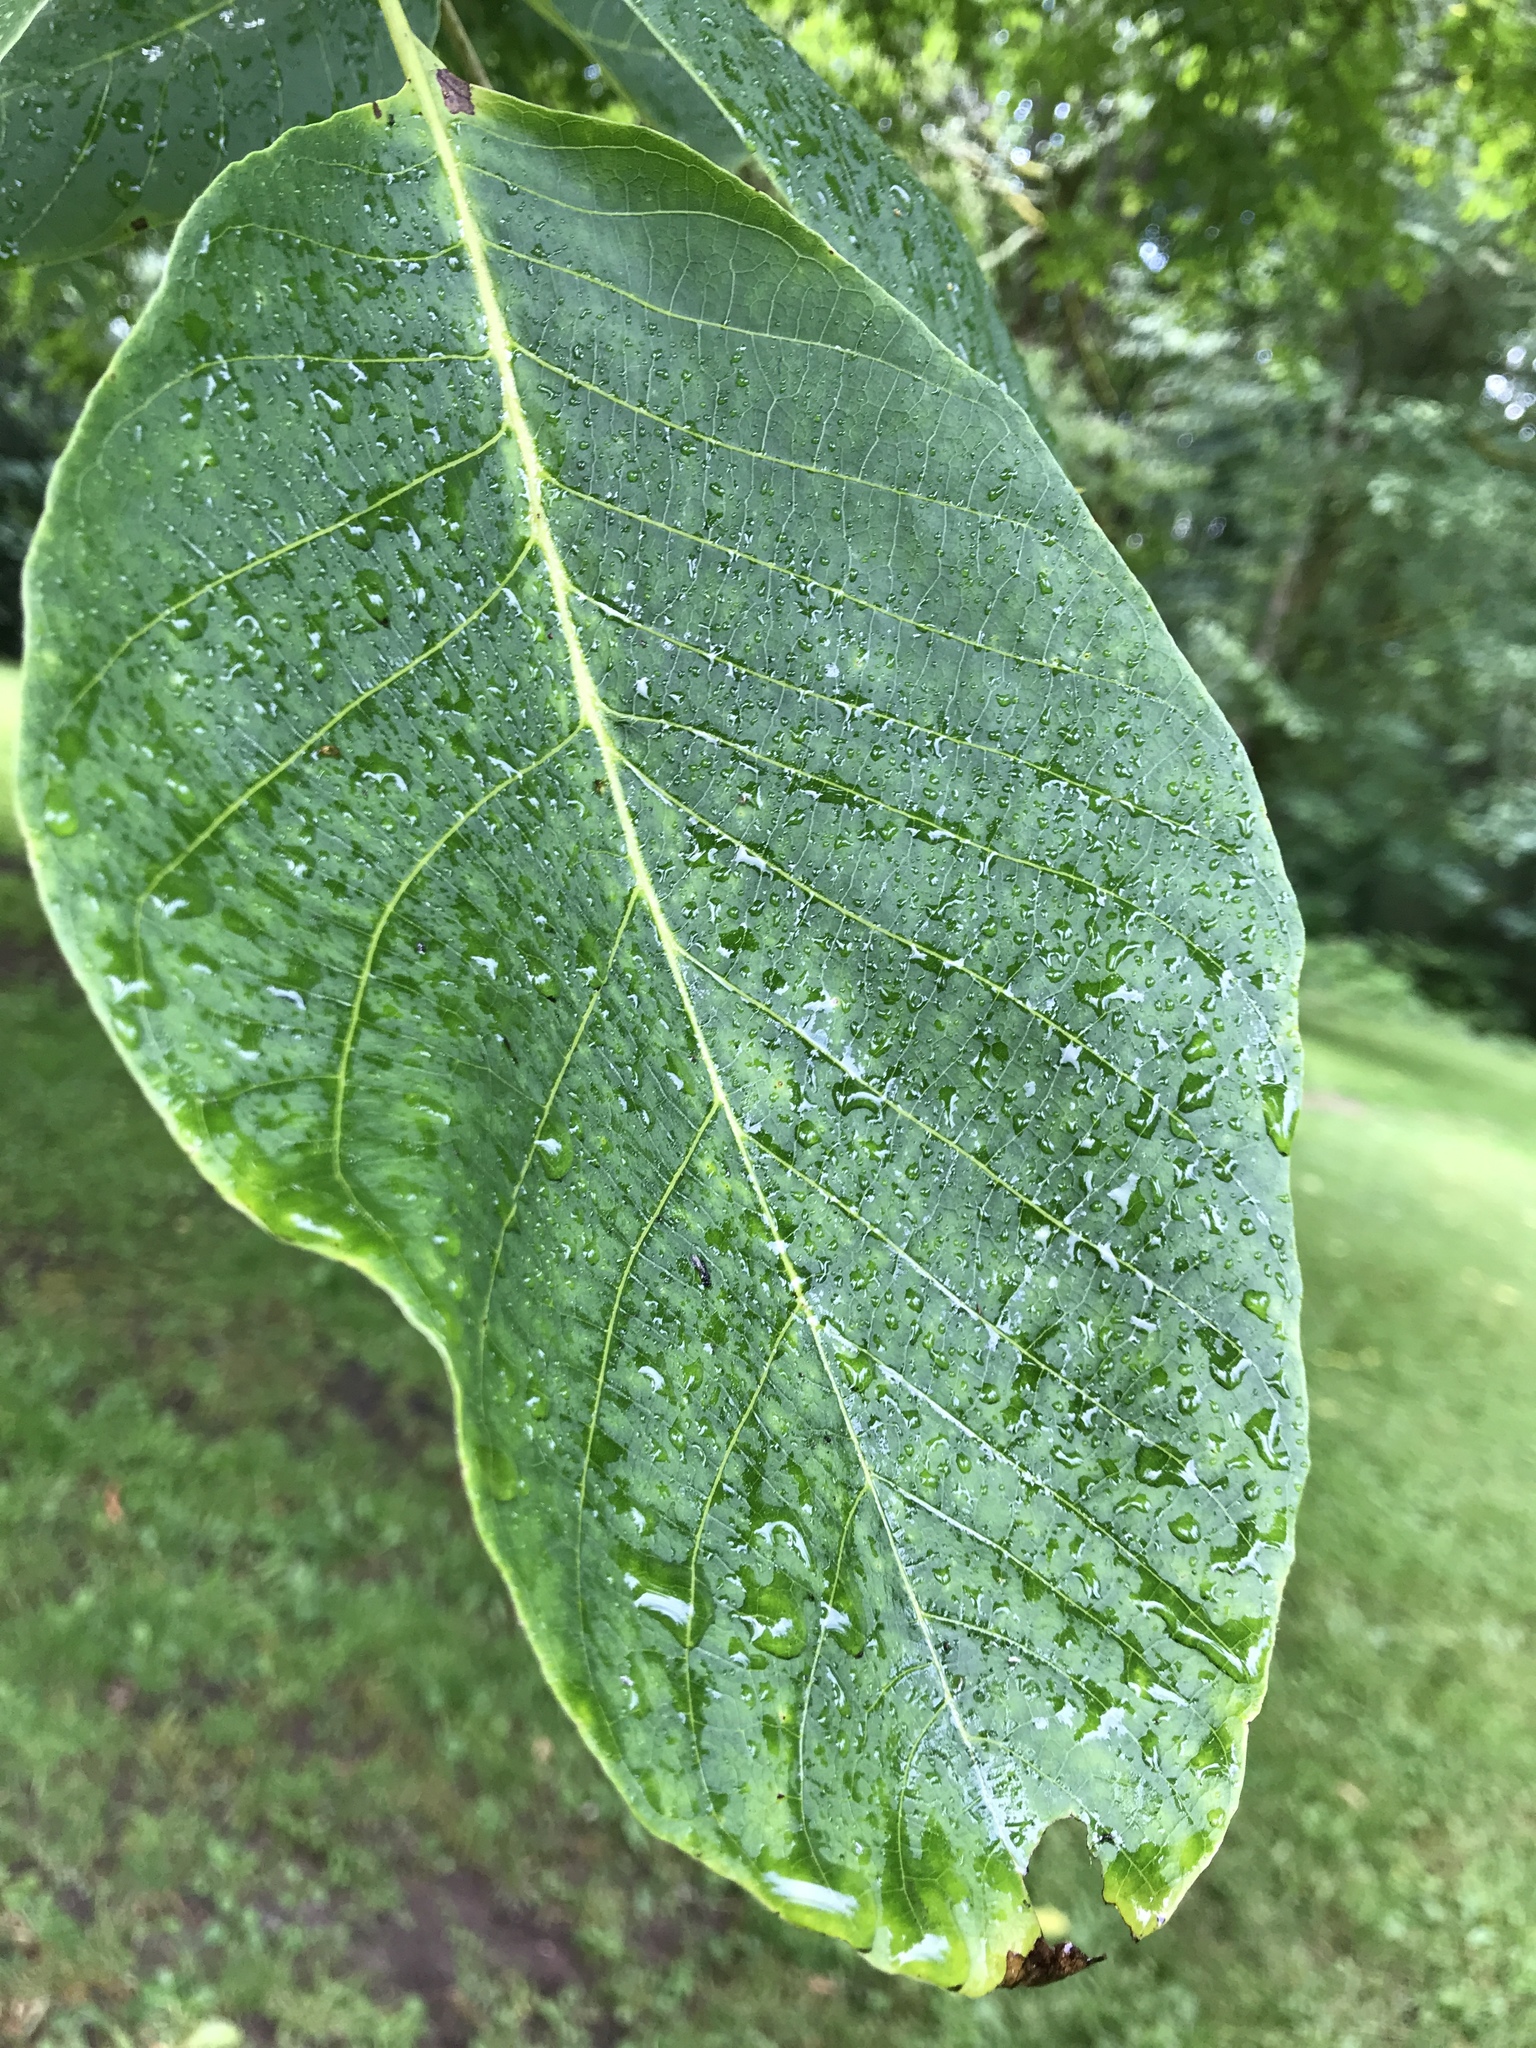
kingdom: Plantae
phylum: Tracheophyta
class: Magnoliopsida
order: Fagales
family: Juglandaceae
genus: Juglans
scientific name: Juglans regia
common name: Walnut
